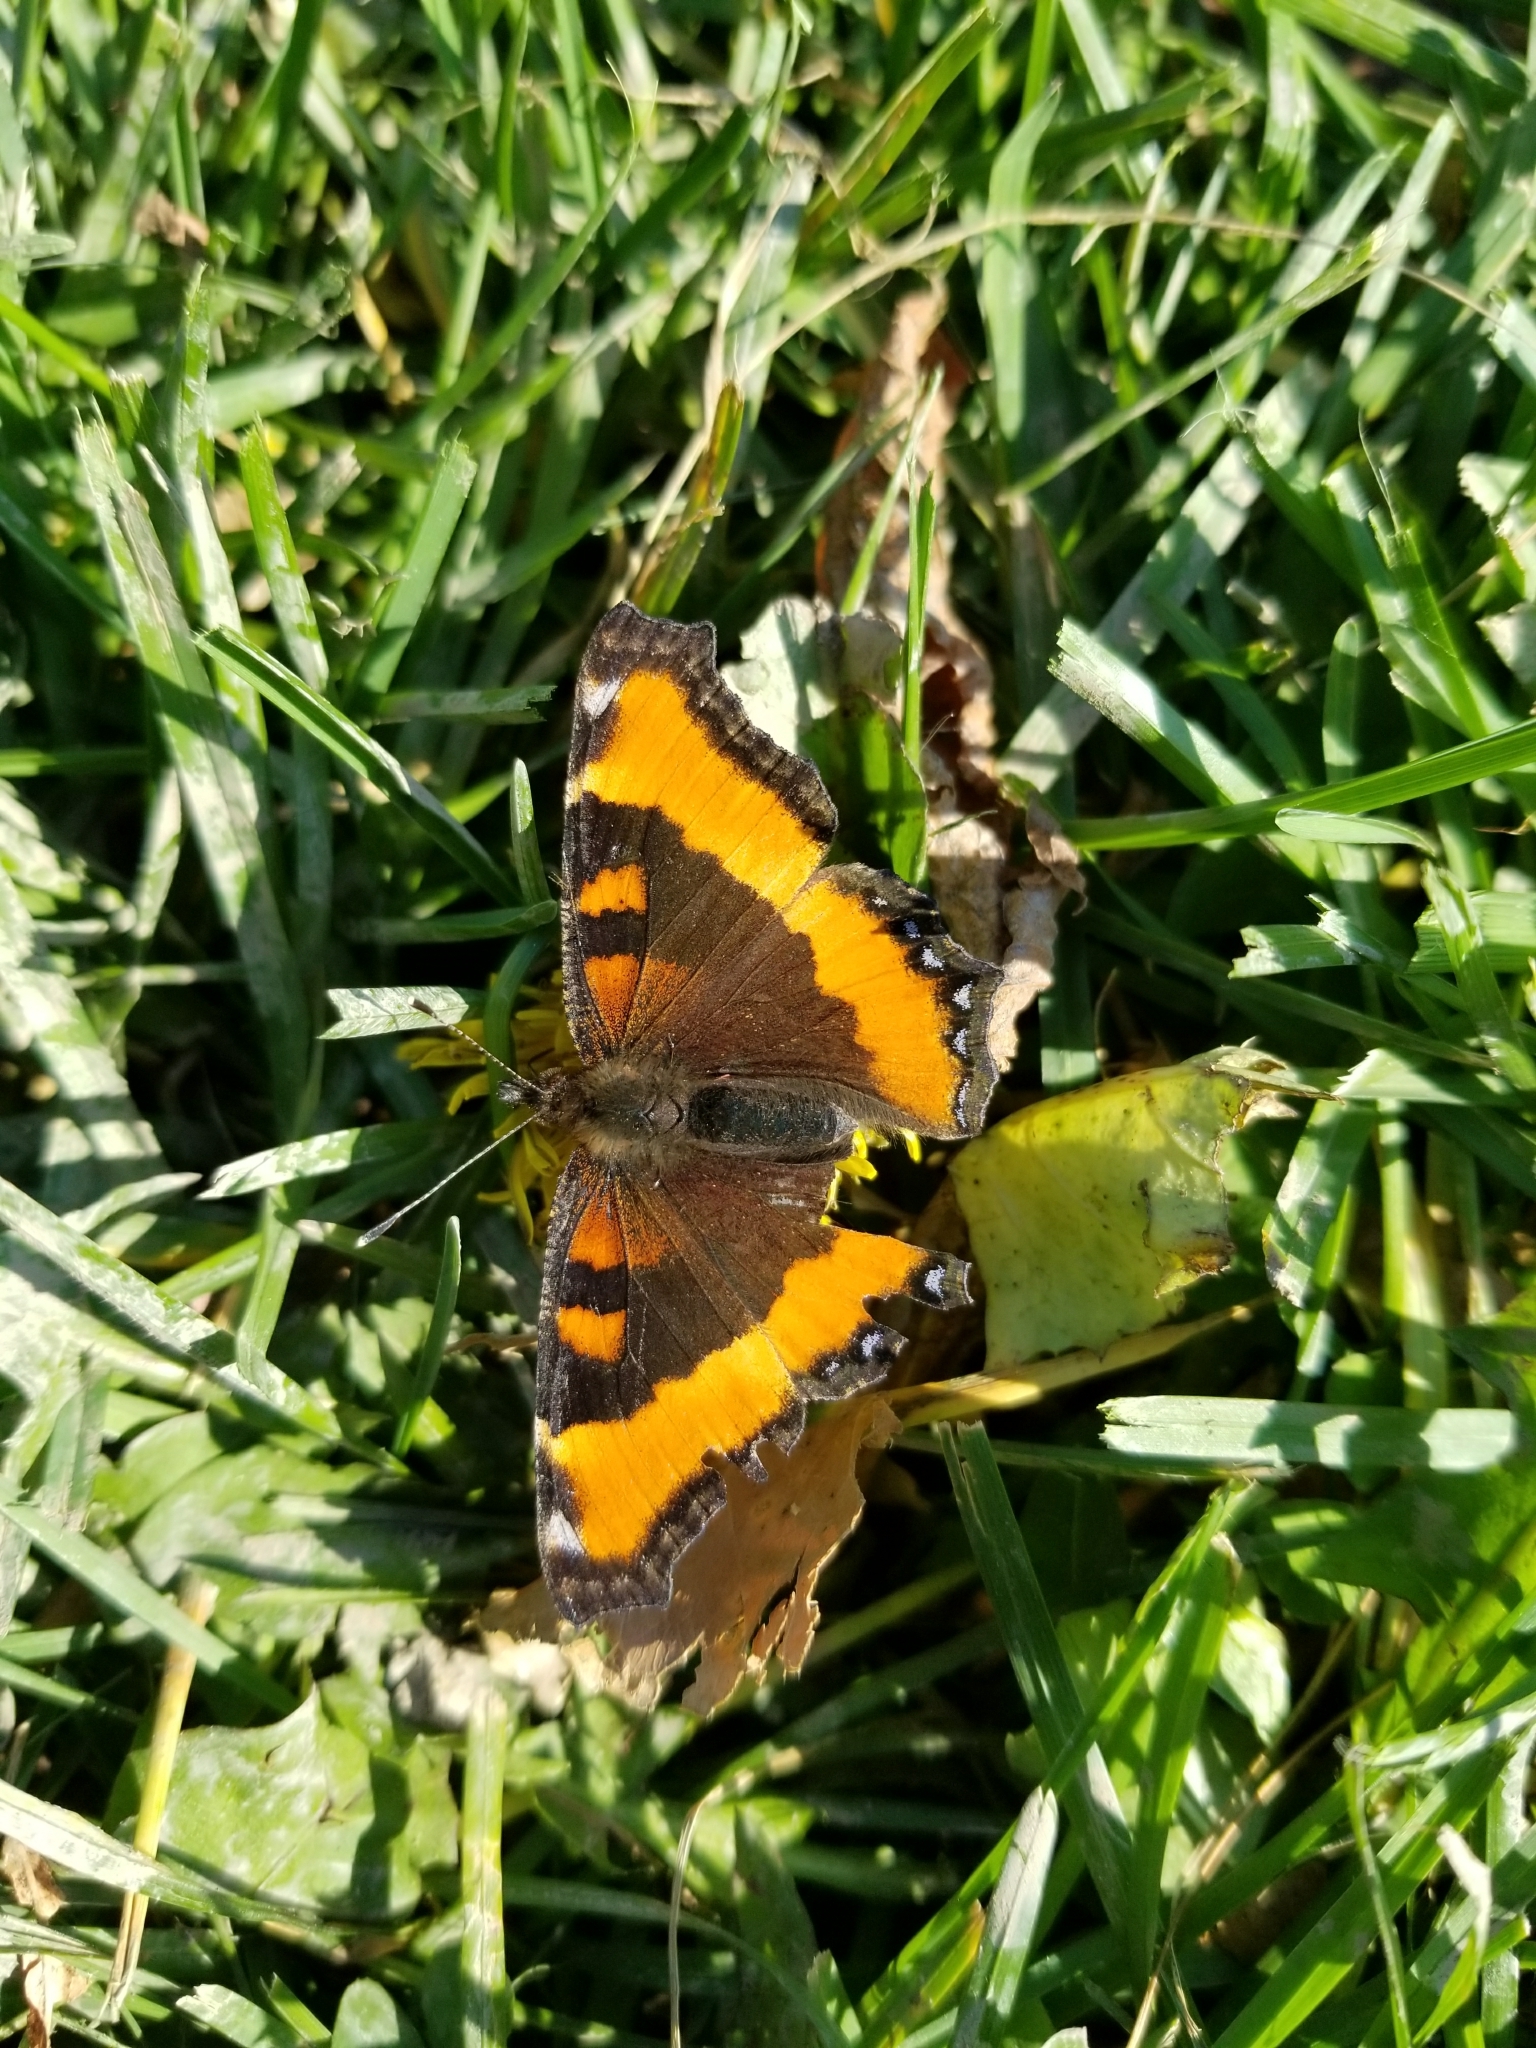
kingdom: Animalia
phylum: Arthropoda
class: Insecta
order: Lepidoptera
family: Nymphalidae
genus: Aglais
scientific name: Aglais milberti
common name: Milbert's tortoiseshell
